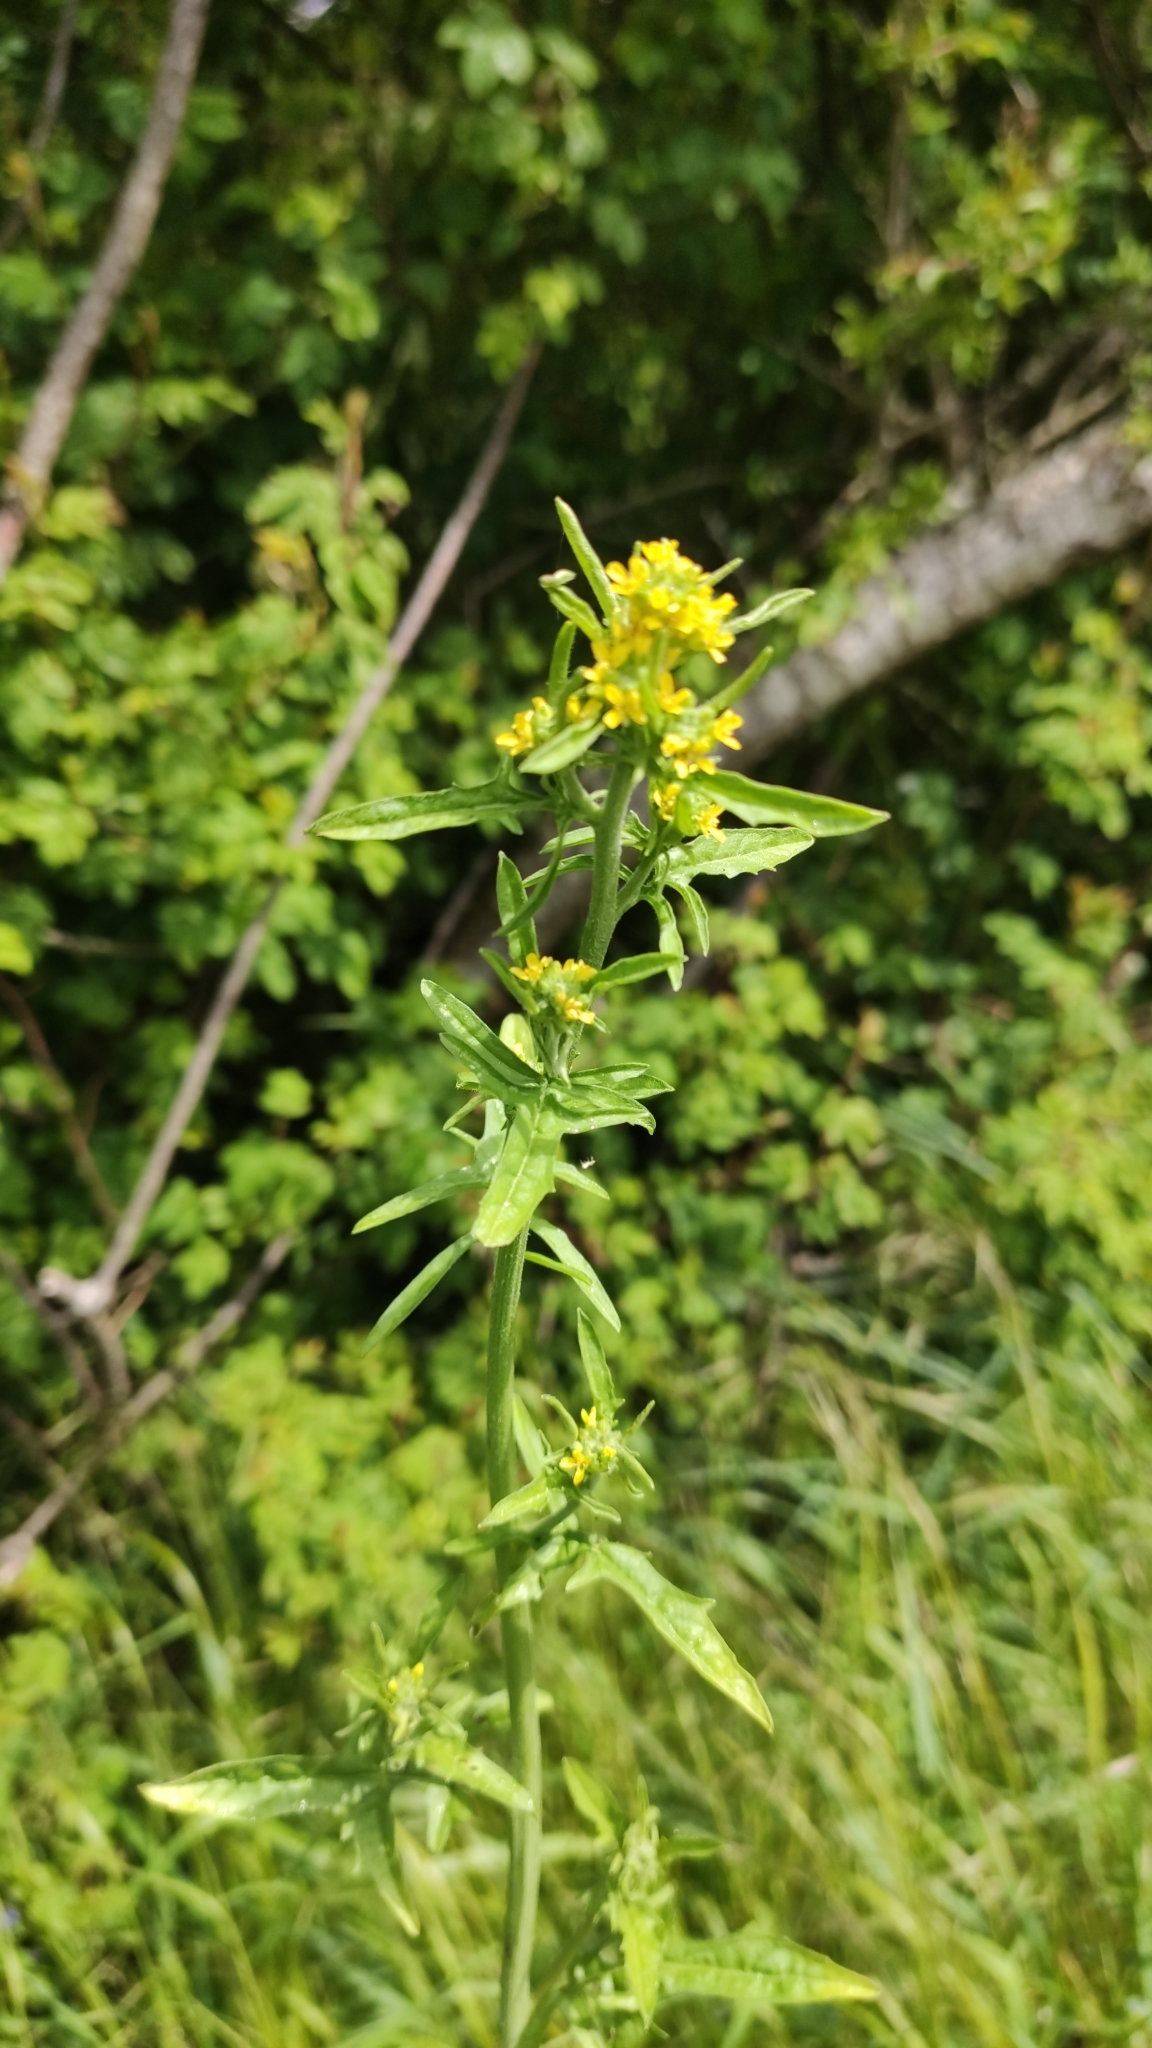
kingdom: Plantae
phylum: Tracheophyta
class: Magnoliopsida
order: Brassicales
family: Brassicaceae
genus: Sisymbrium
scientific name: Sisymbrium officinale
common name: Hedge mustard
